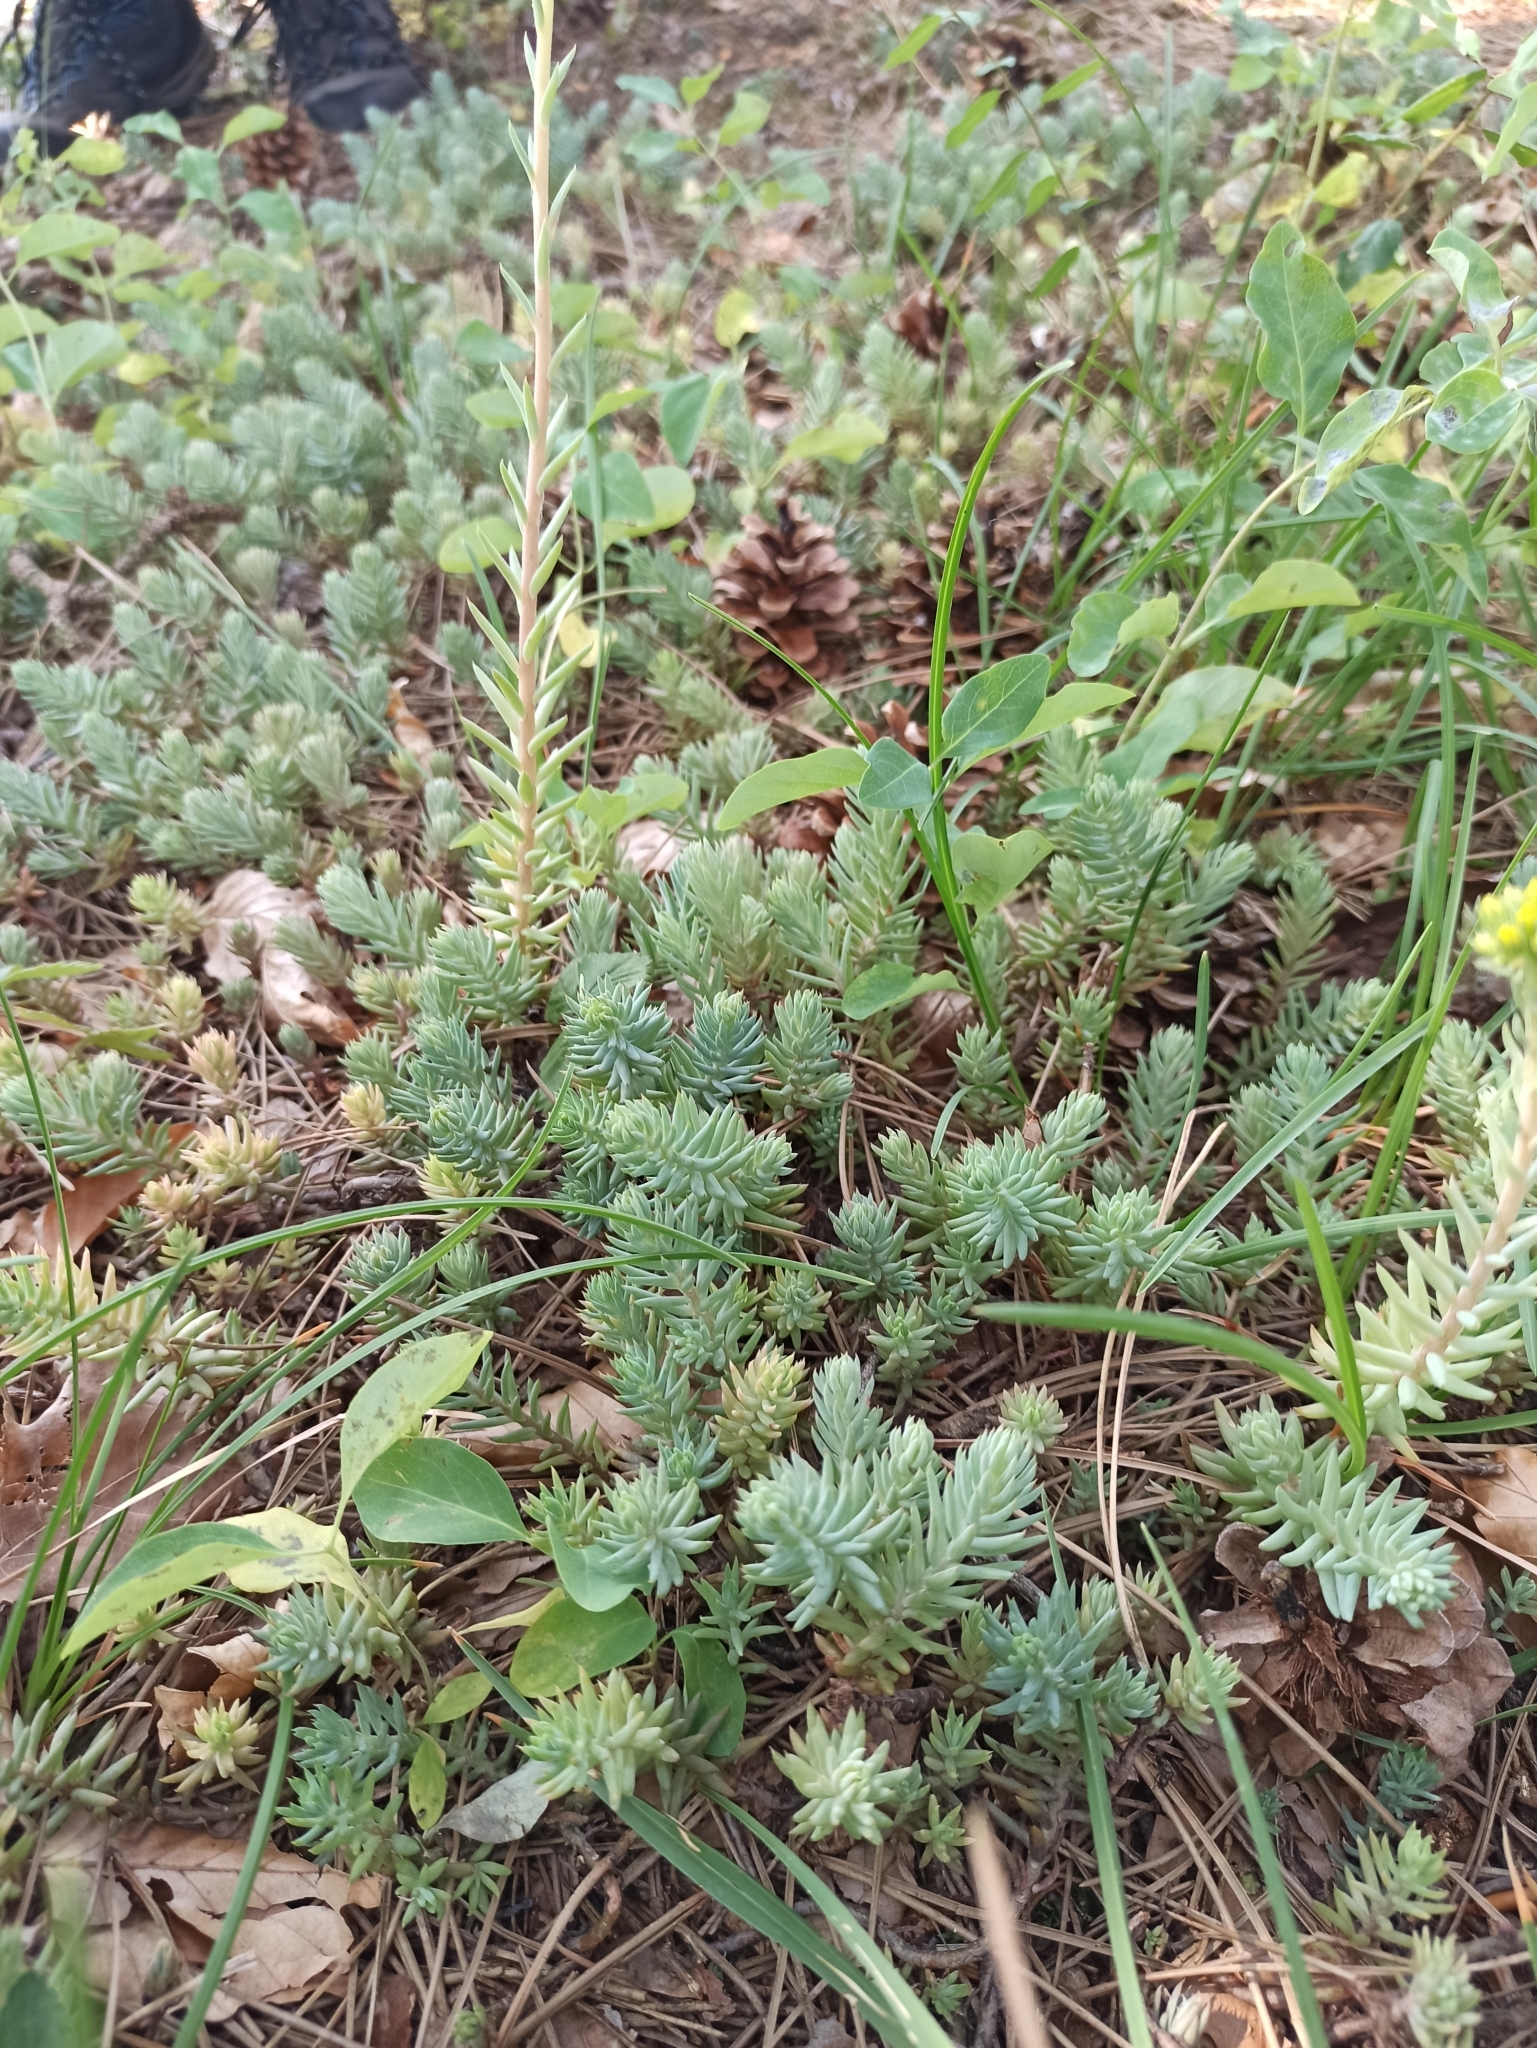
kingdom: Plantae
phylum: Tracheophyta
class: Magnoliopsida
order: Saxifragales
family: Crassulaceae
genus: Petrosedum
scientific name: Petrosedum rupestre
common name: Jenny's stonecrop
